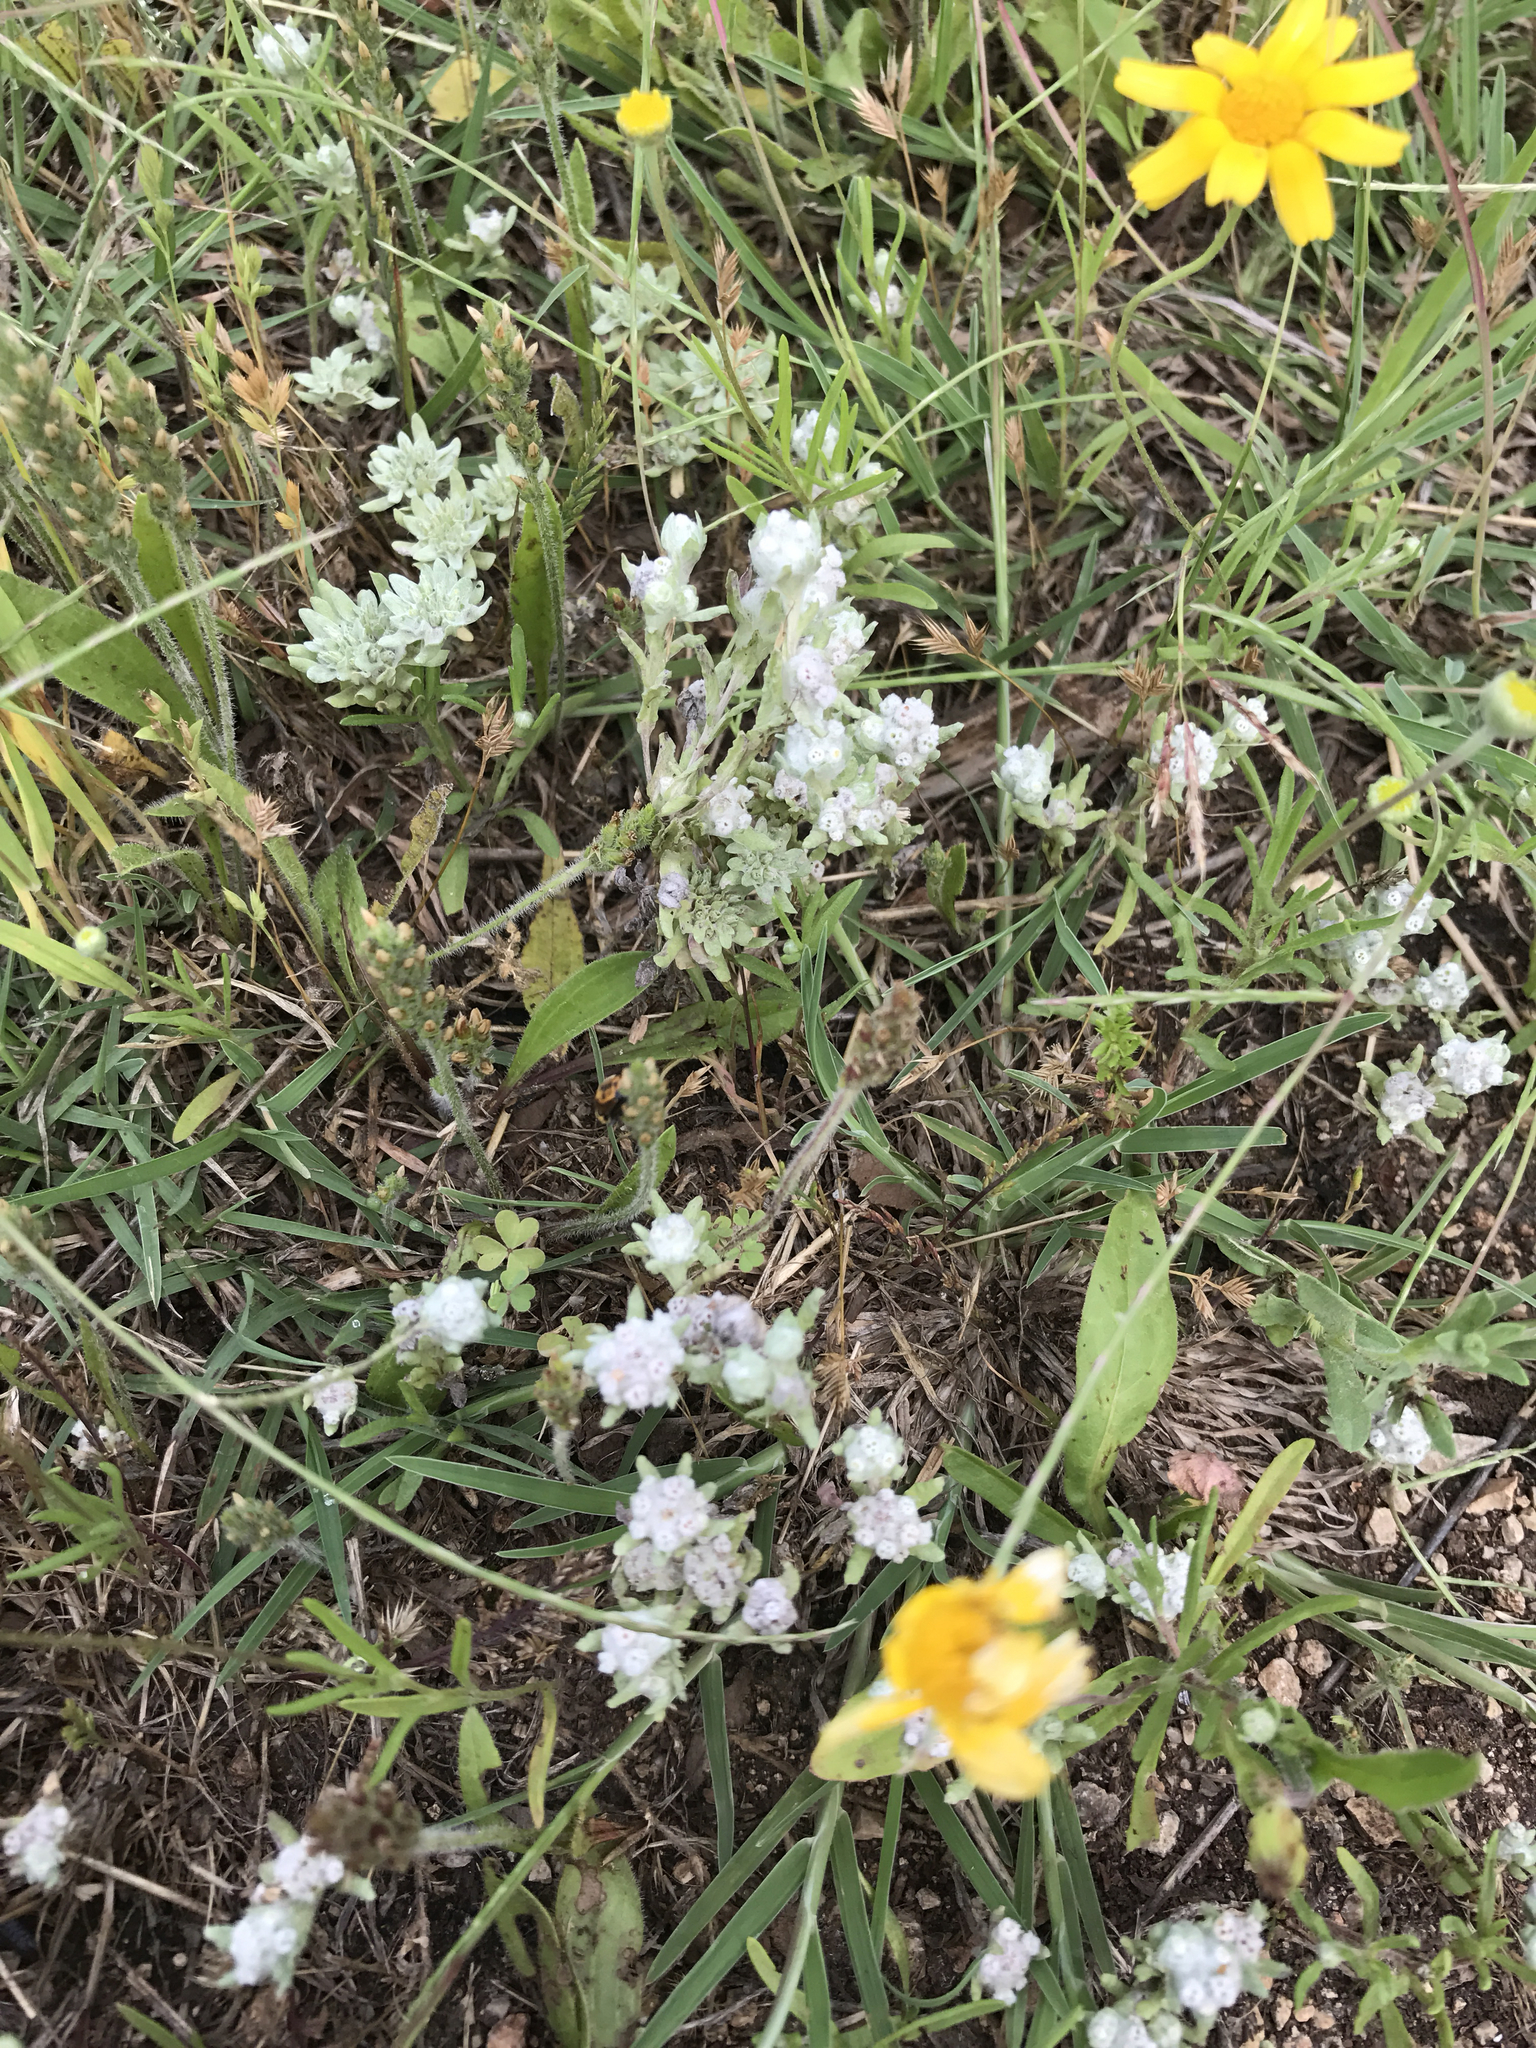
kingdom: Plantae
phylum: Tracheophyta
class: Magnoliopsida
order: Asterales
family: Asteraceae
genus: Diaperia
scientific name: Diaperia verna
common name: Many-stem rabbit-tobacco
